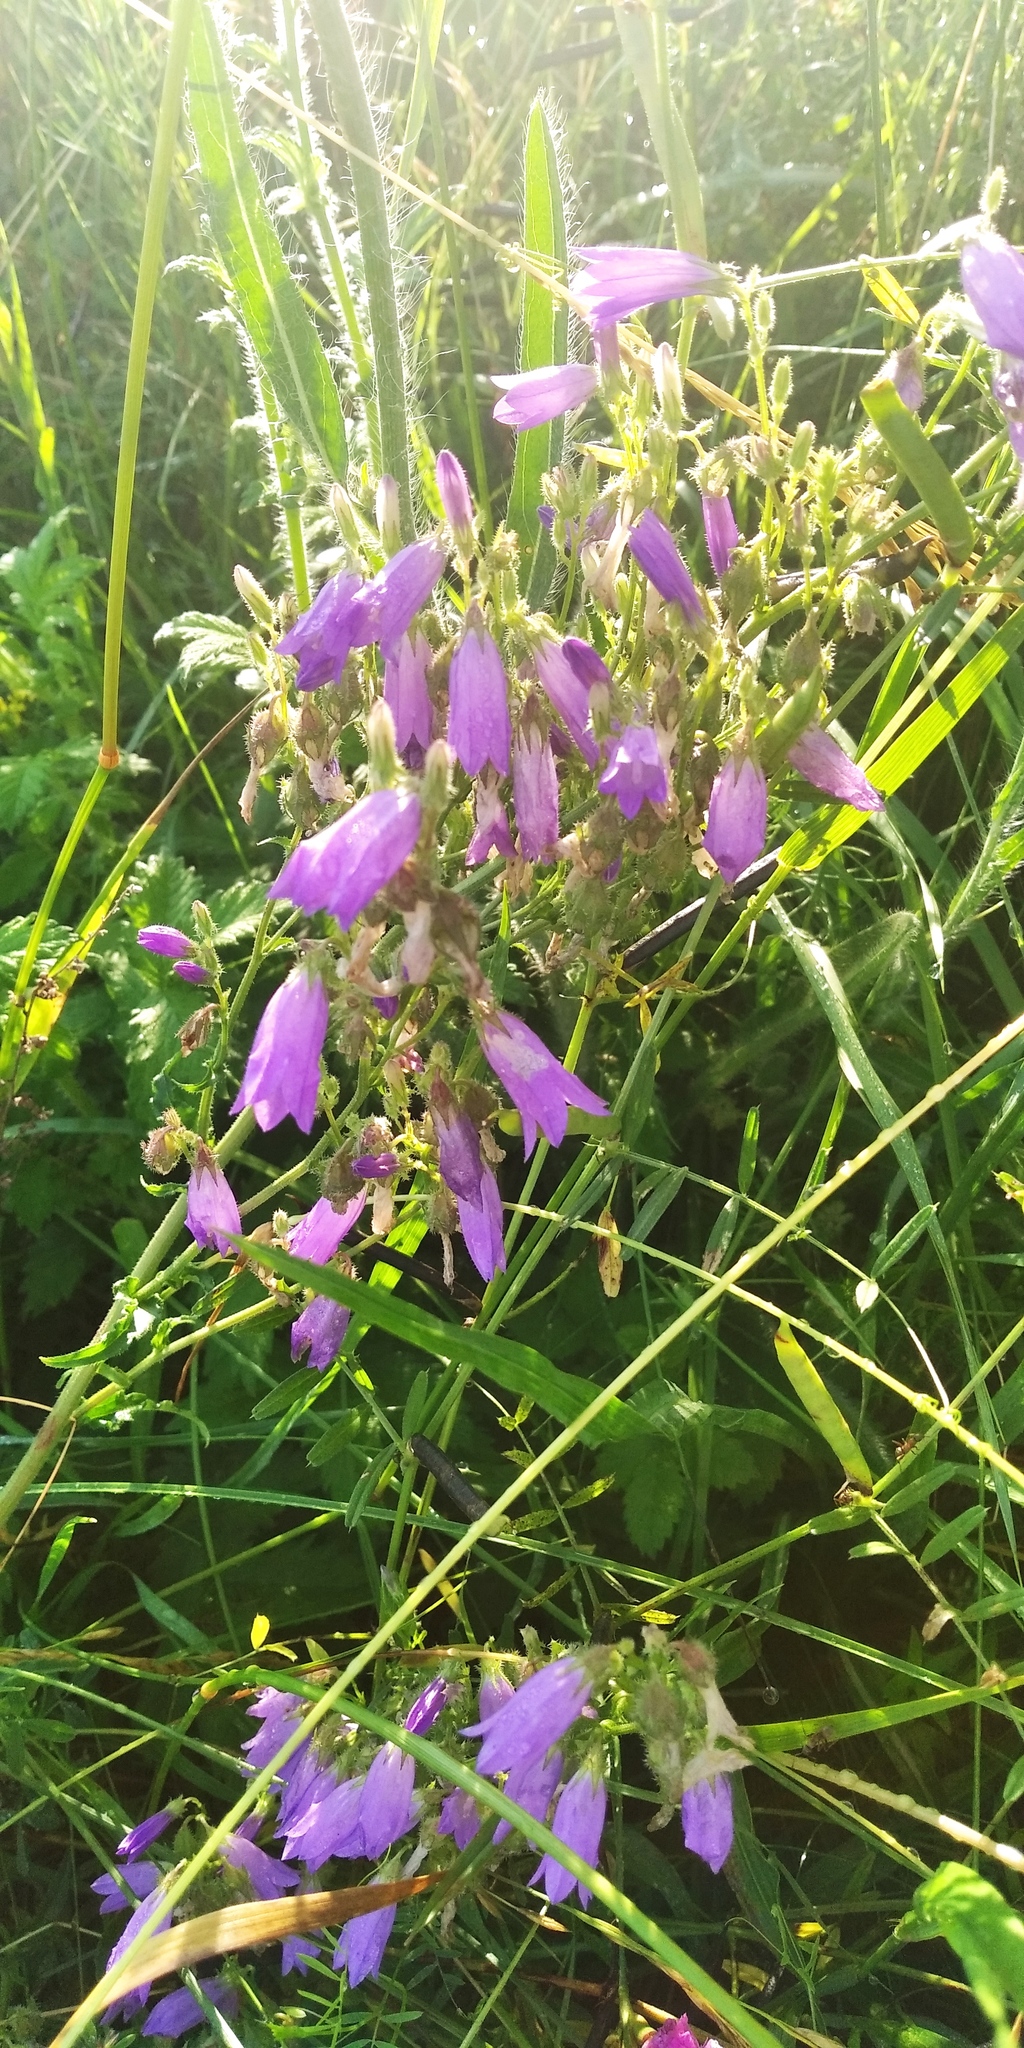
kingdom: Plantae
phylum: Tracheophyta
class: Magnoliopsida
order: Asterales
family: Campanulaceae
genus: Campanula
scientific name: Campanula sibirica
